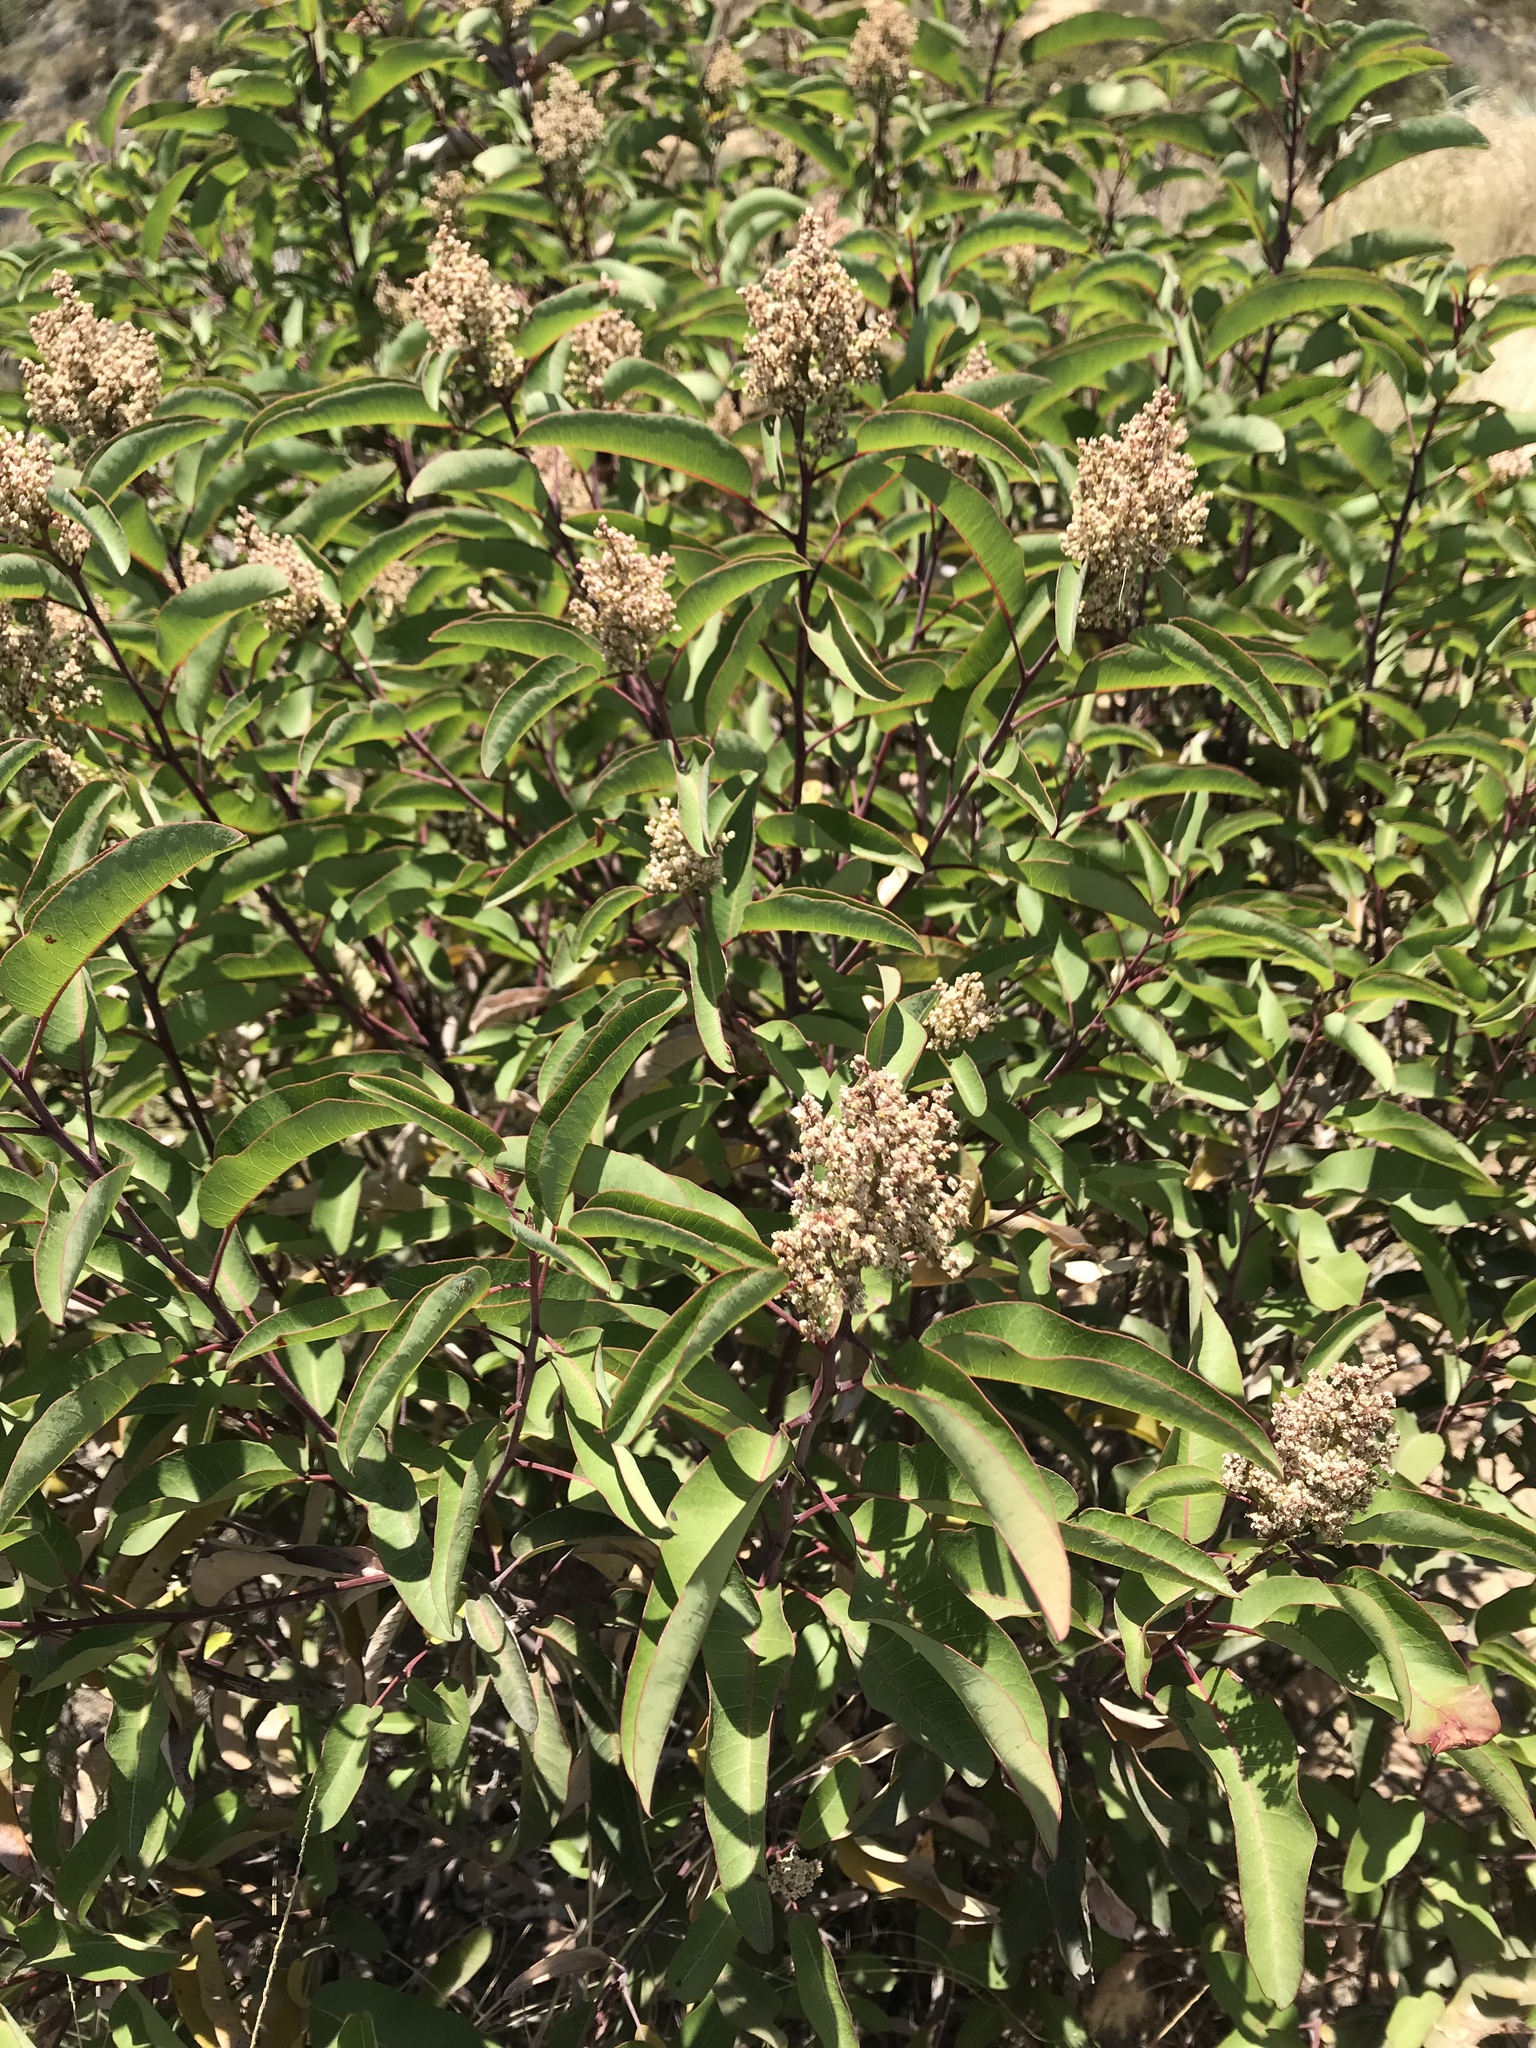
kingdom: Plantae
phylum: Tracheophyta
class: Magnoliopsida
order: Sapindales
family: Anacardiaceae
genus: Malosma
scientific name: Malosma laurina
